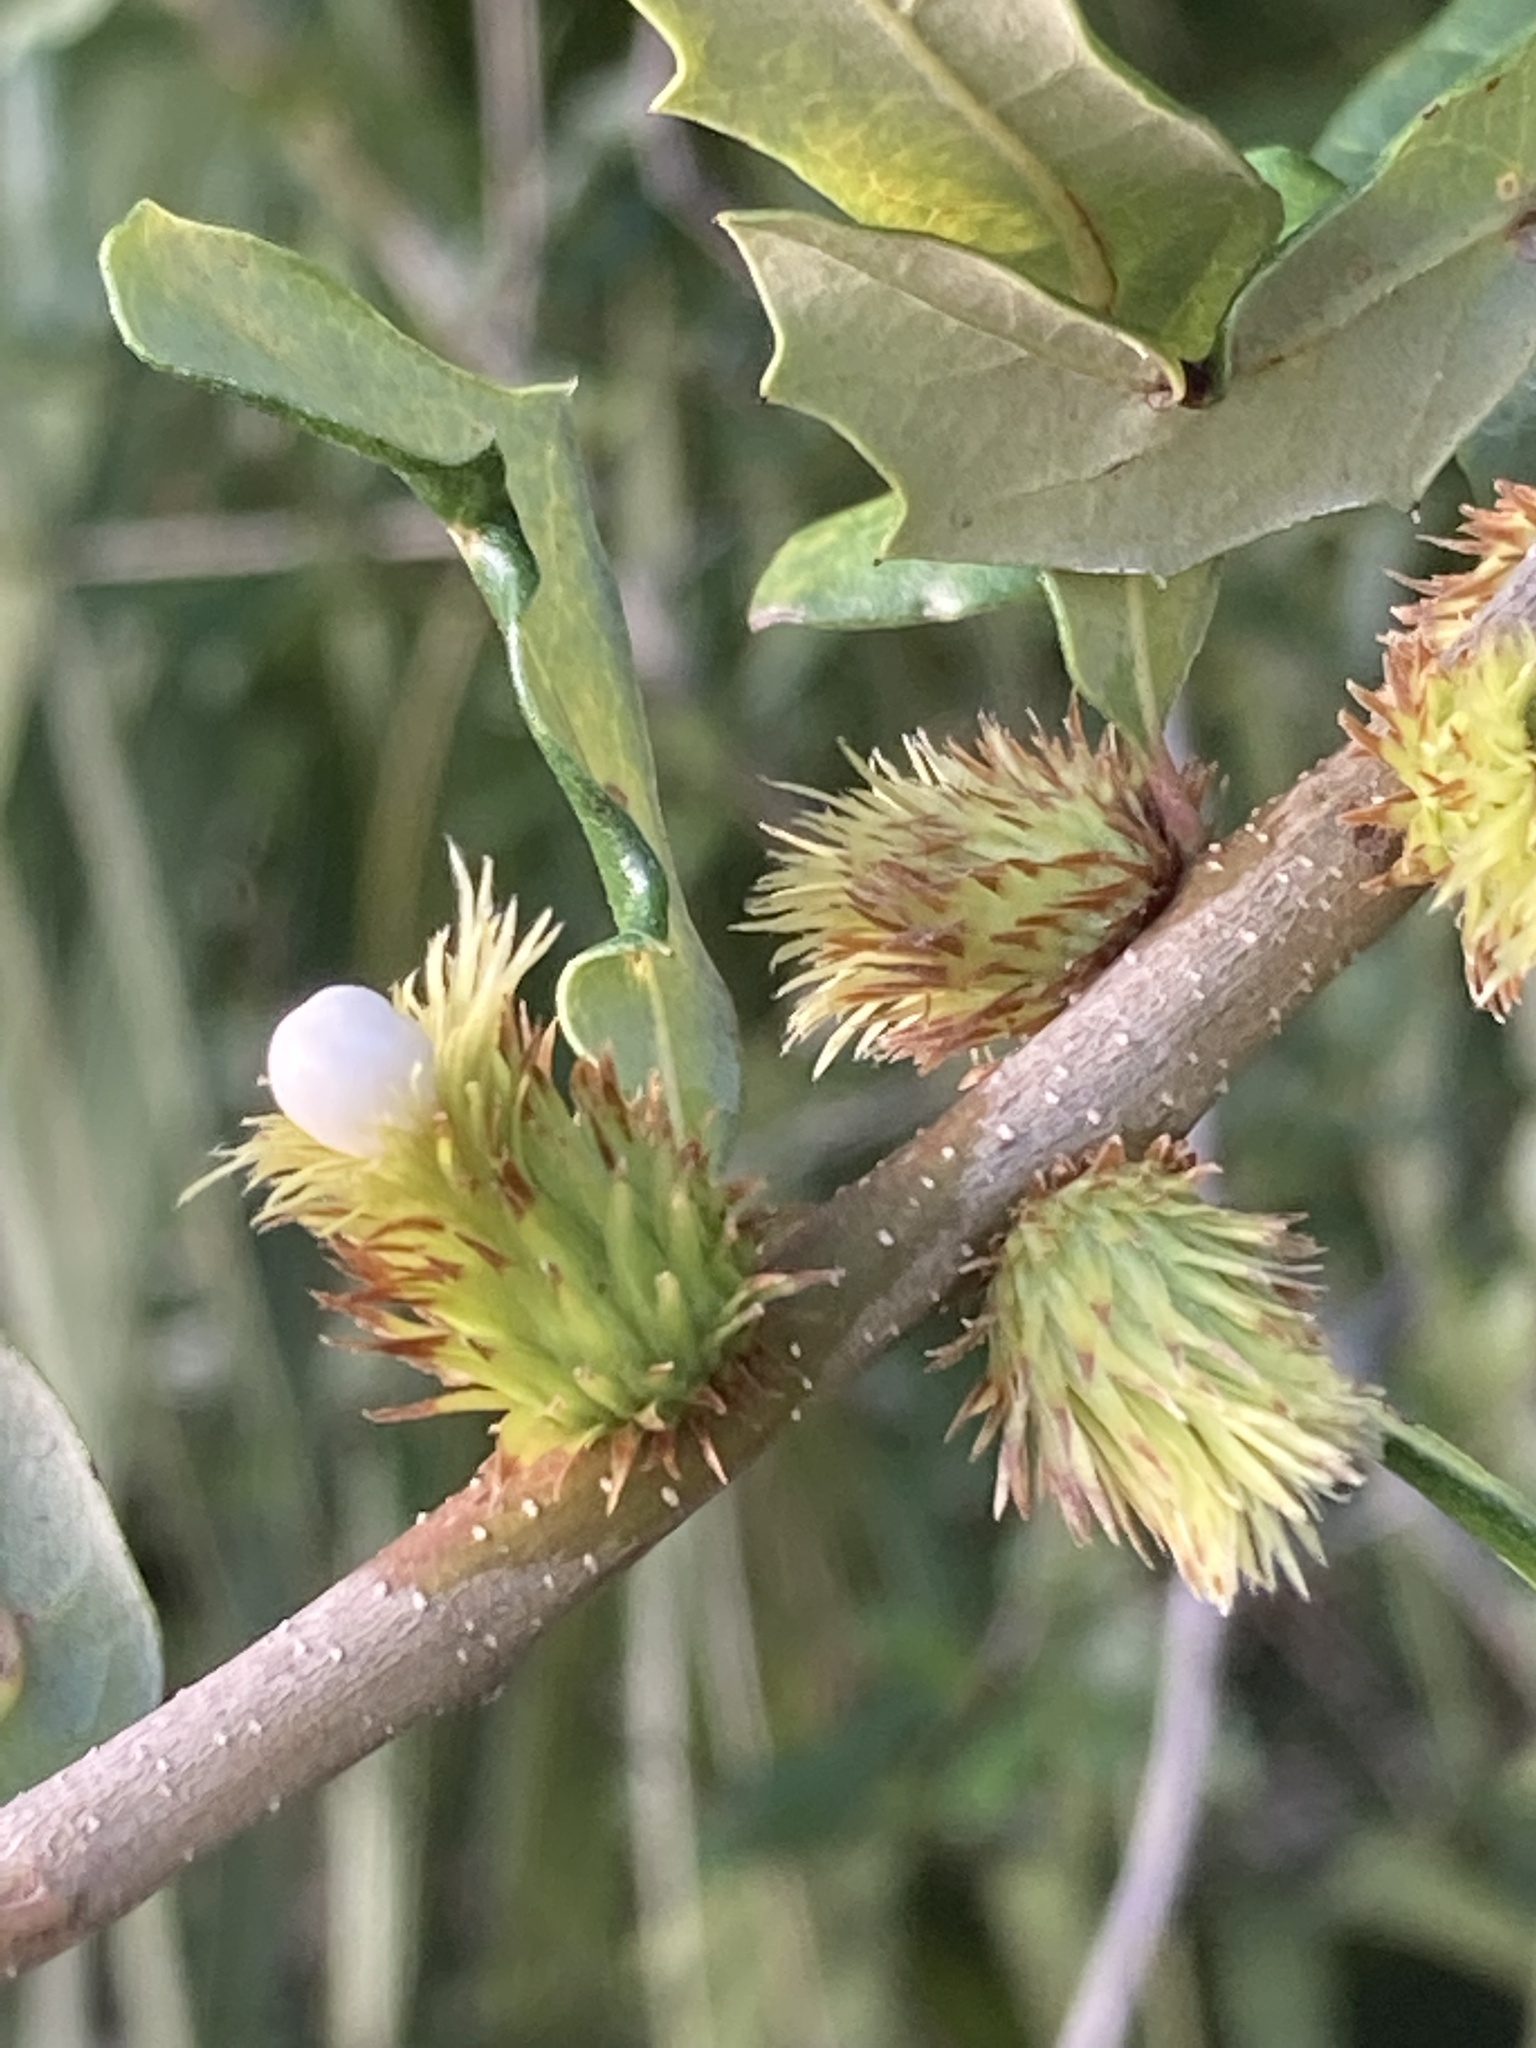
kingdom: Animalia
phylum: Arthropoda
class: Insecta
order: Hymenoptera
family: Cynipidae
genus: Andricus
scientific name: Andricus quercusfoliatus
